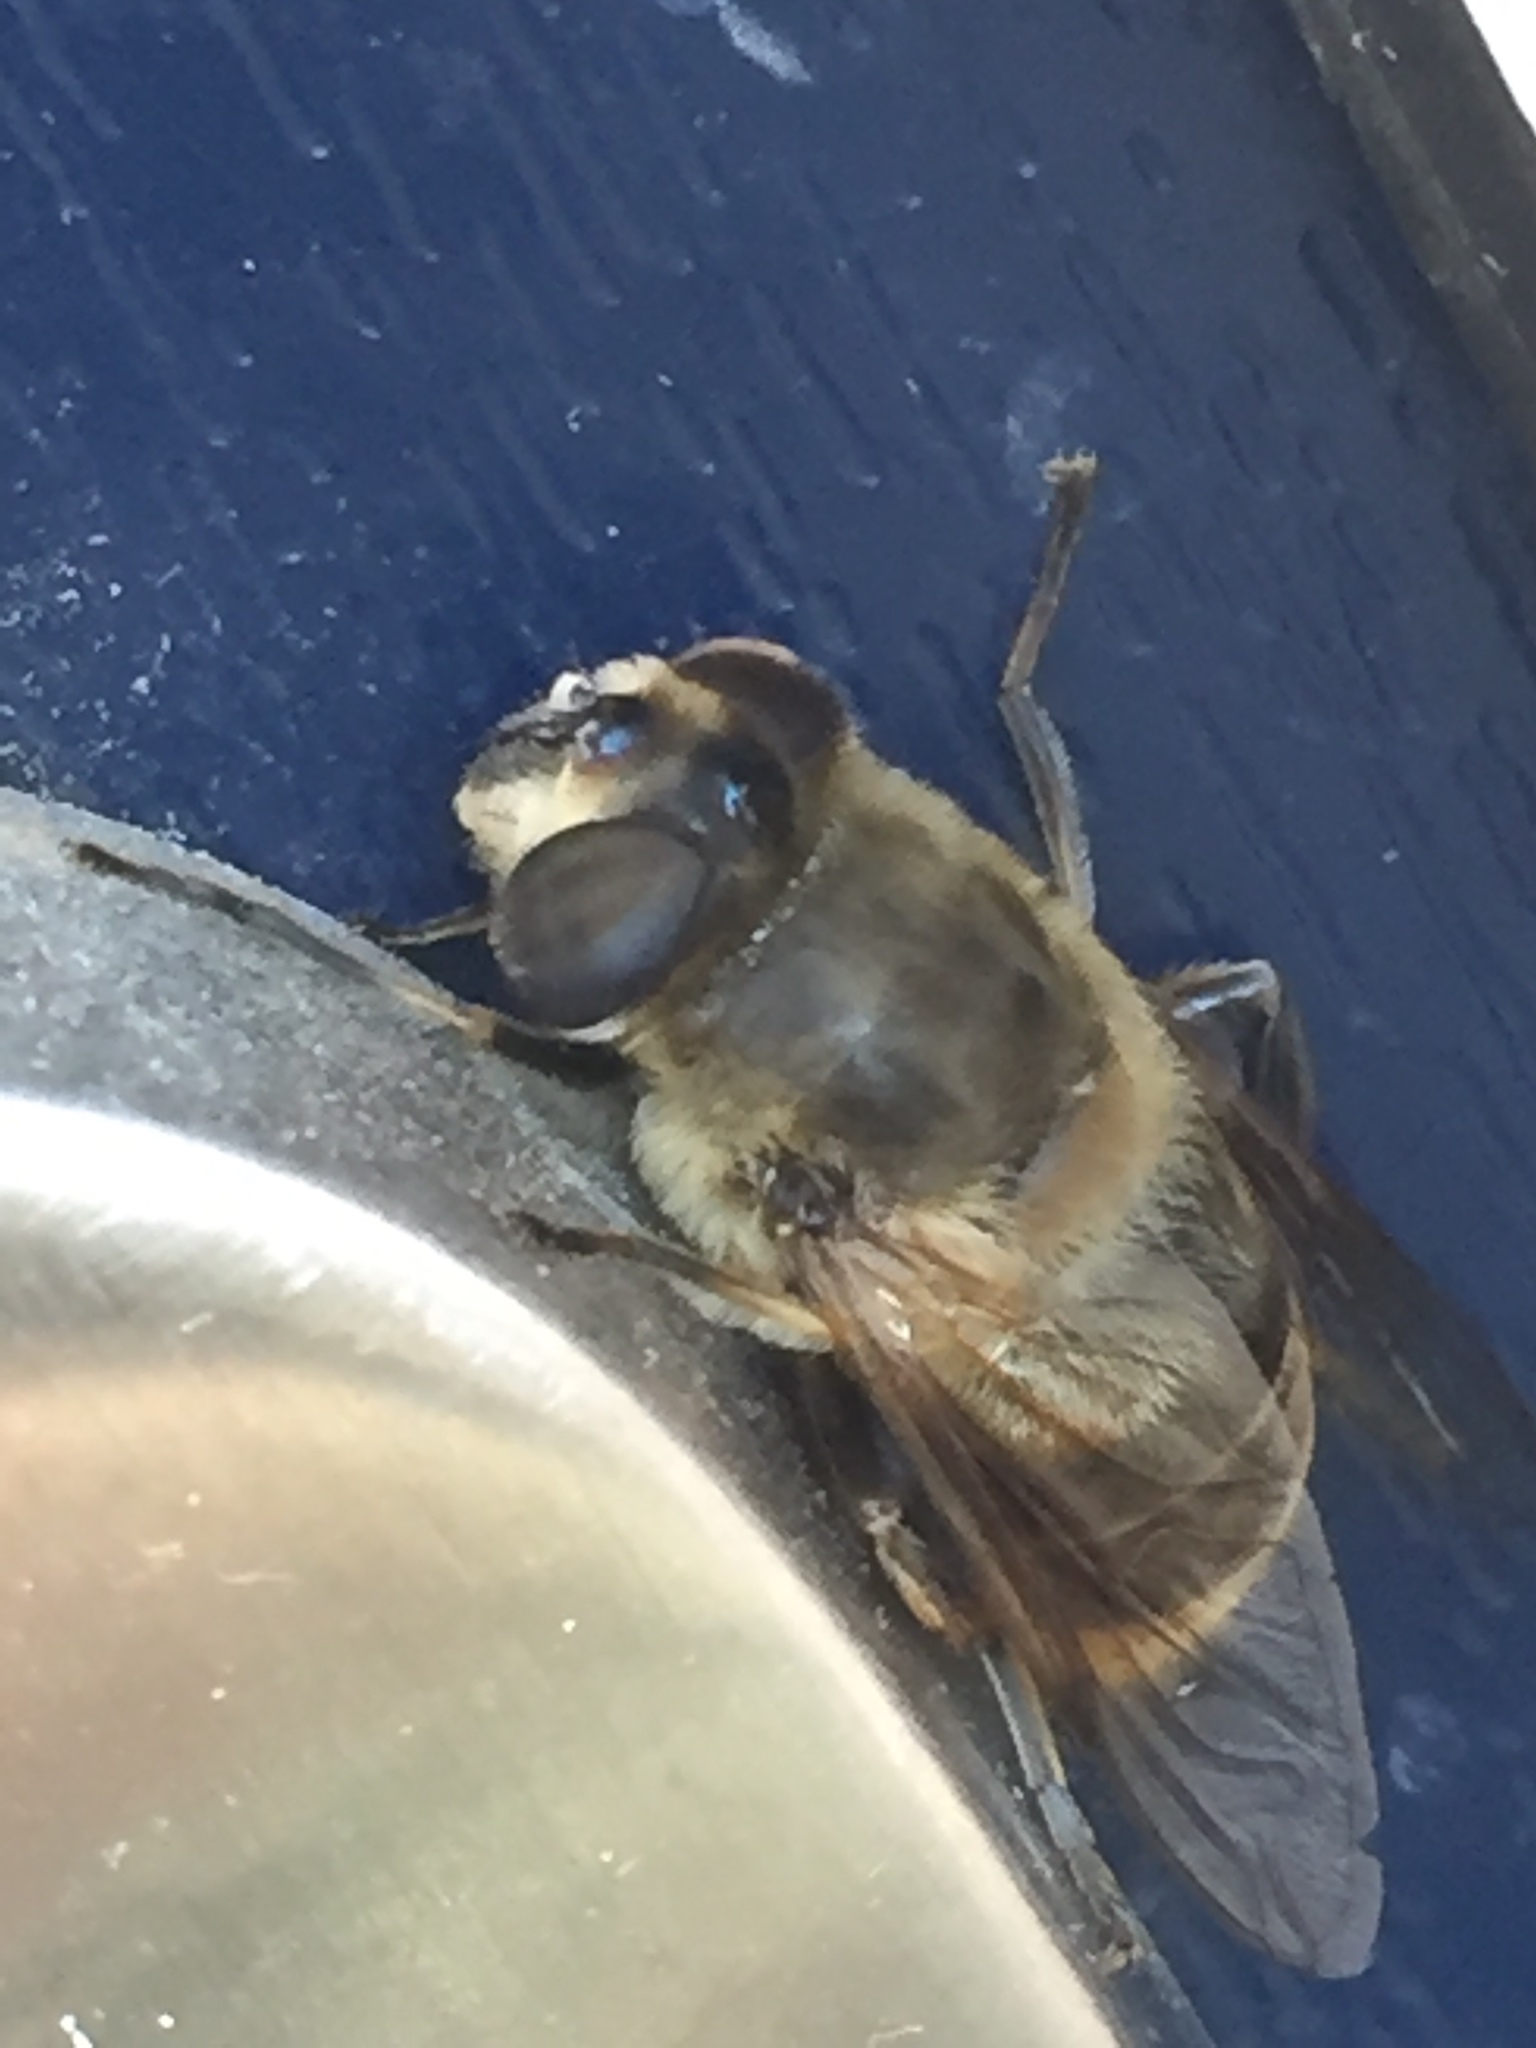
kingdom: Animalia
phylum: Arthropoda
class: Insecta
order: Diptera
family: Syrphidae
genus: Eristalis
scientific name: Eristalis tenax
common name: Drone fly
